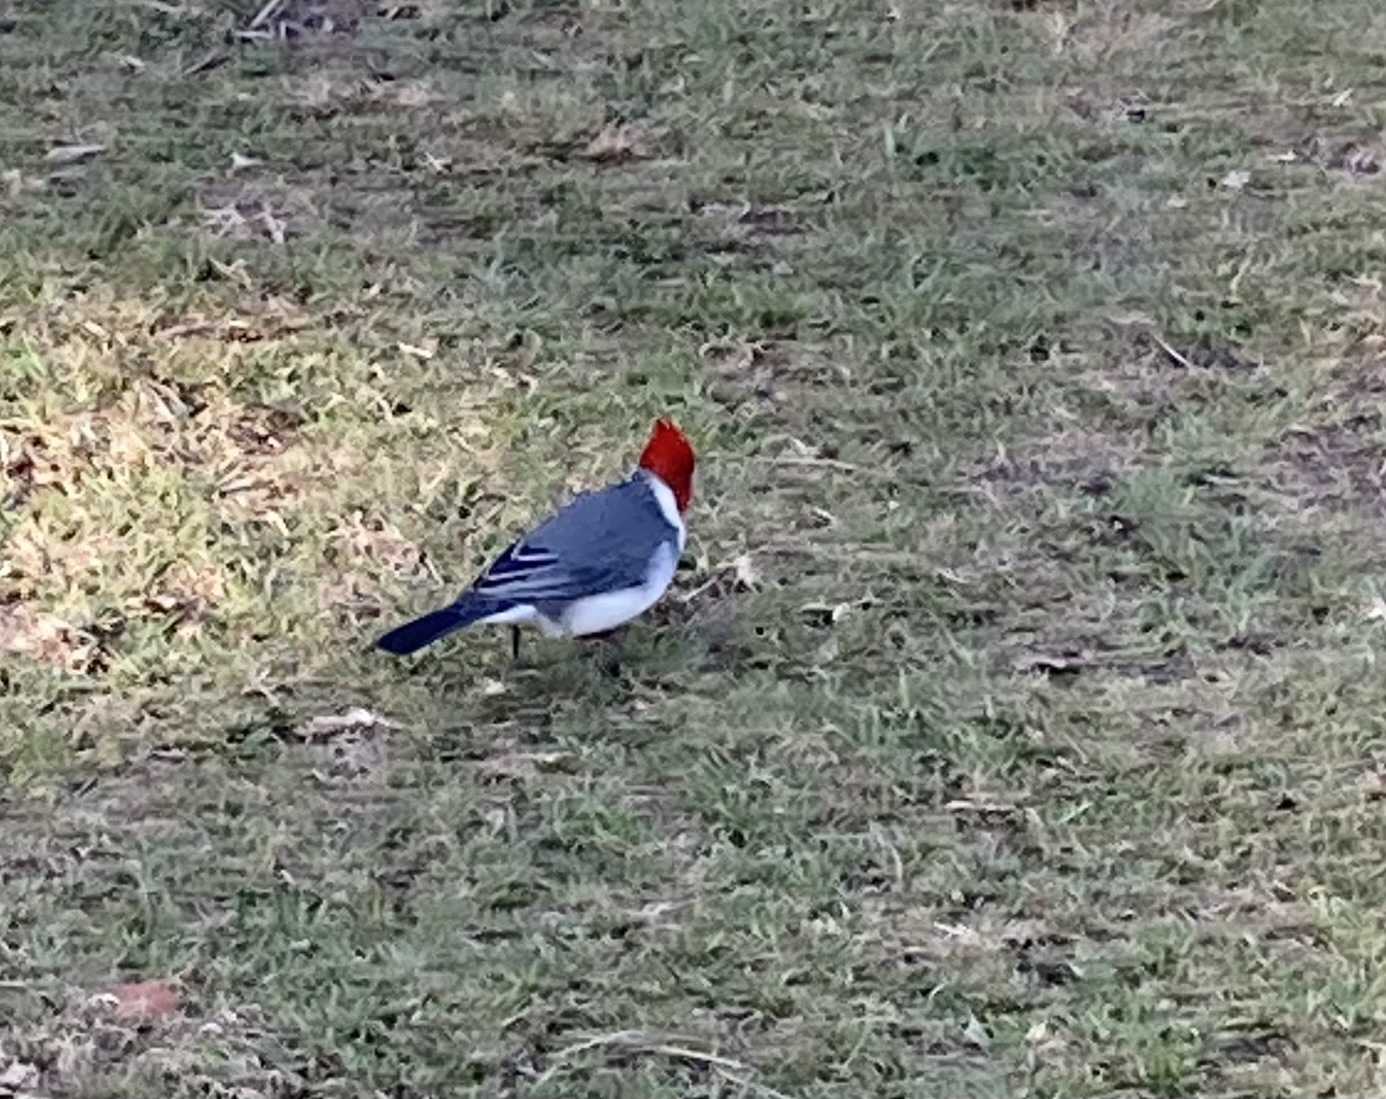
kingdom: Animalia
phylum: Chordata
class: Aves
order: Passeriformes
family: Thraupidae
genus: Paroaria
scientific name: Paroaria coronata
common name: Red-crested cardinal
